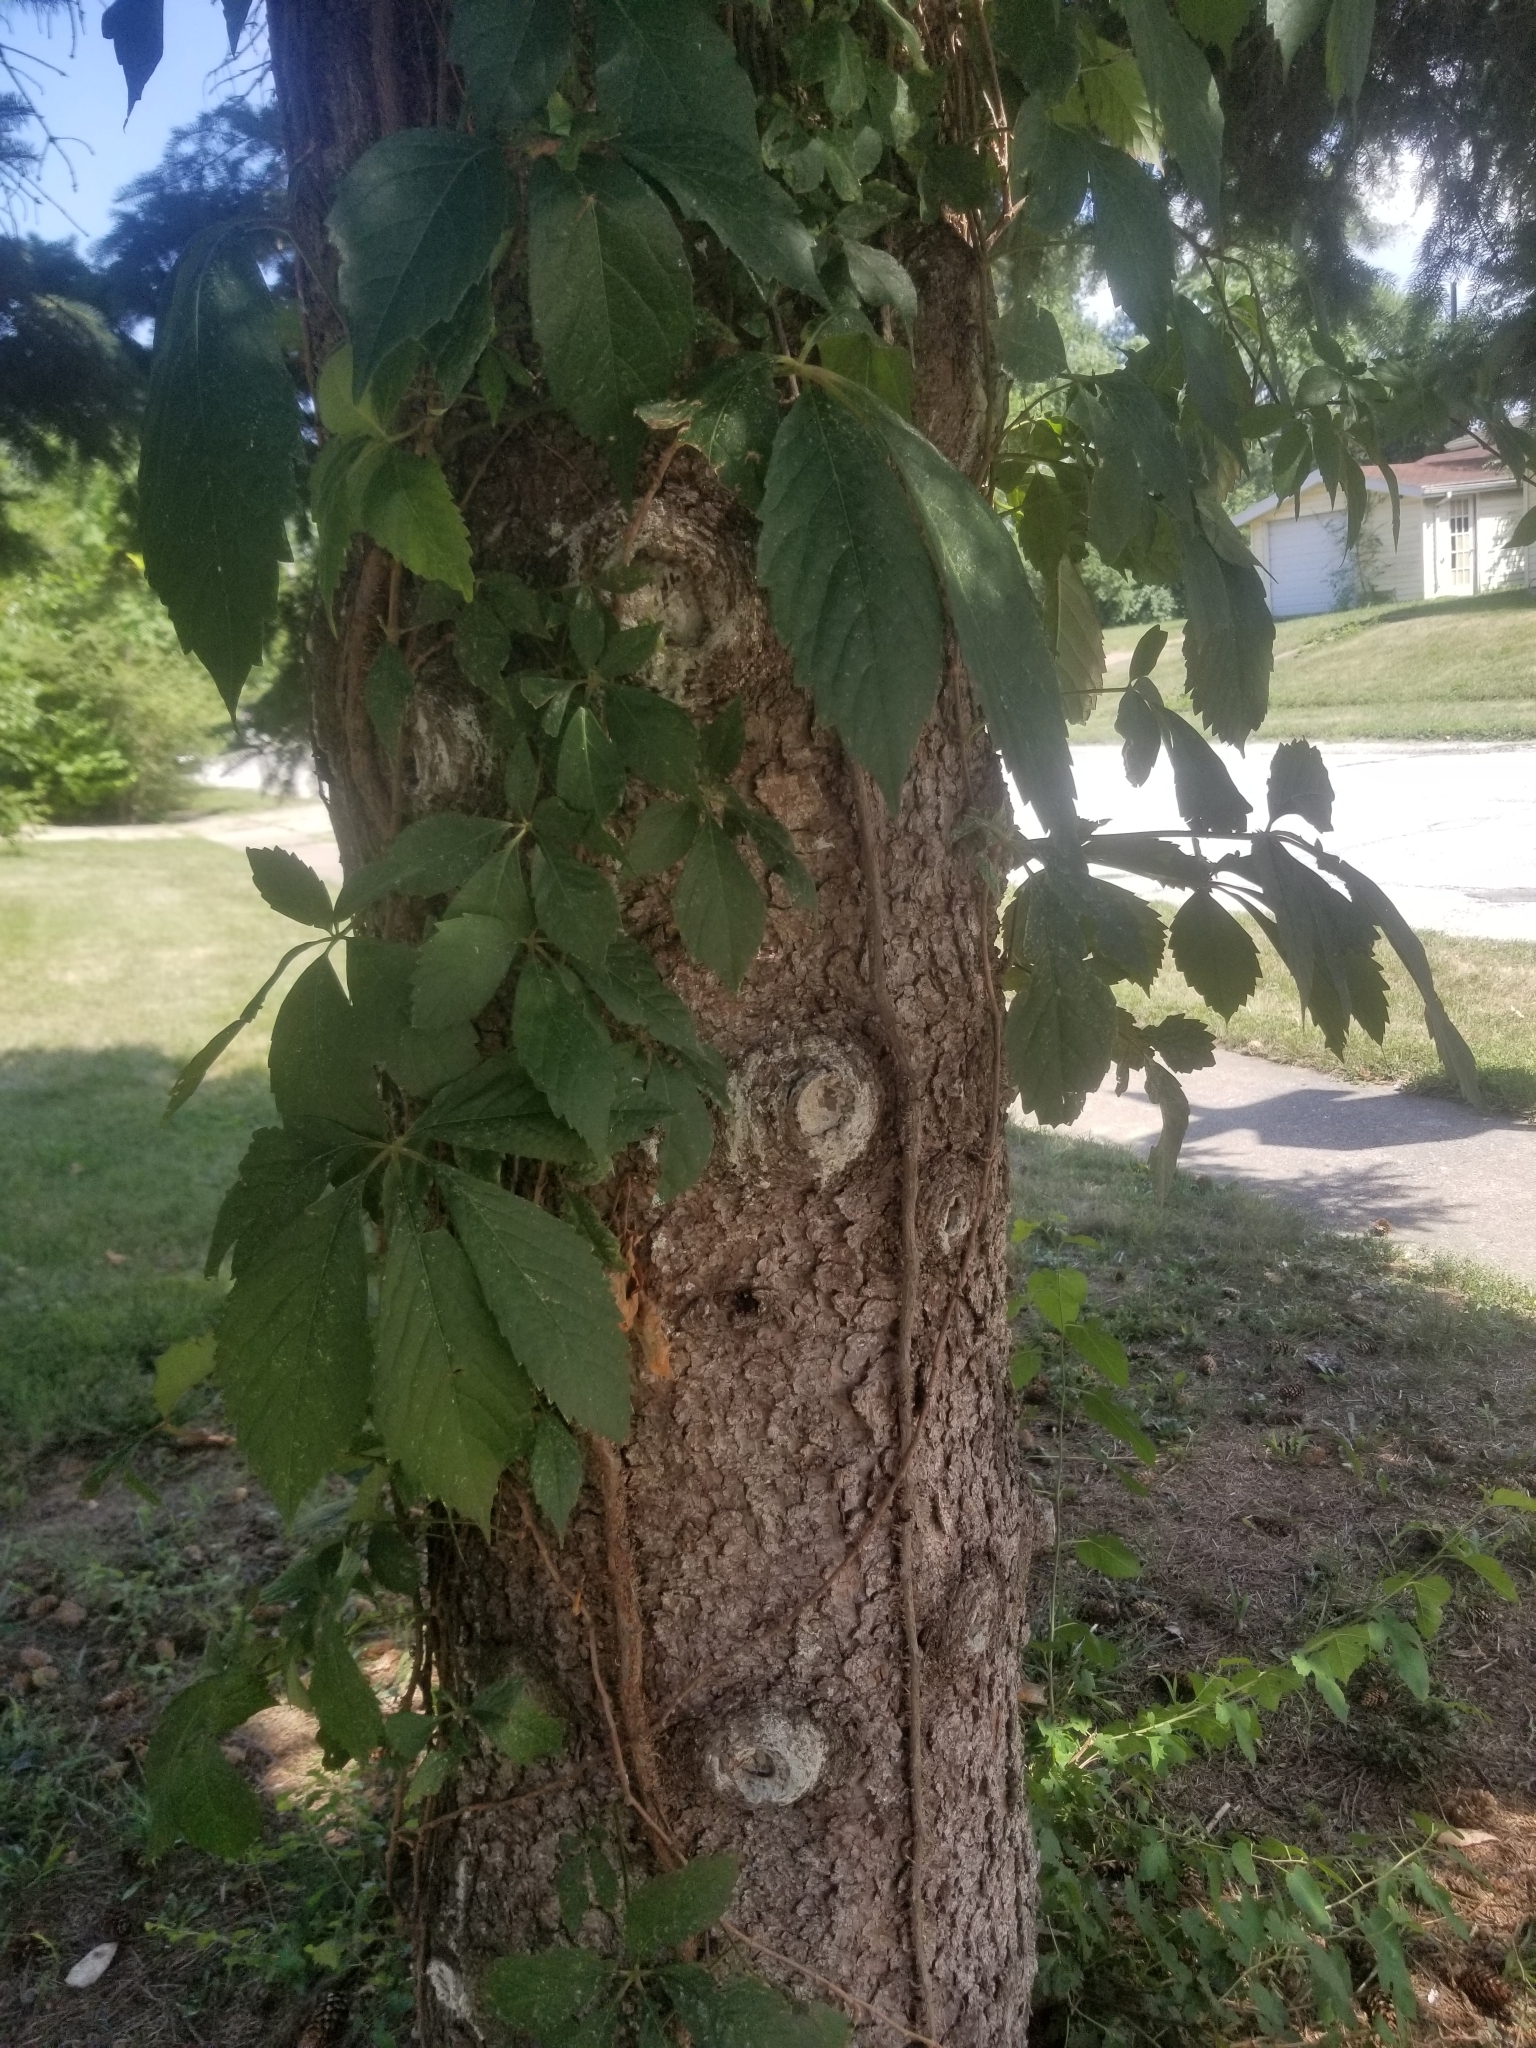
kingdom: Plantae
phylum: Tracheophyta
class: Magnoliopsida
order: Vitales
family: Vitaceae
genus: Parthenocissus
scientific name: Parthenocissus quinquefolia
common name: Virginia-creeper
